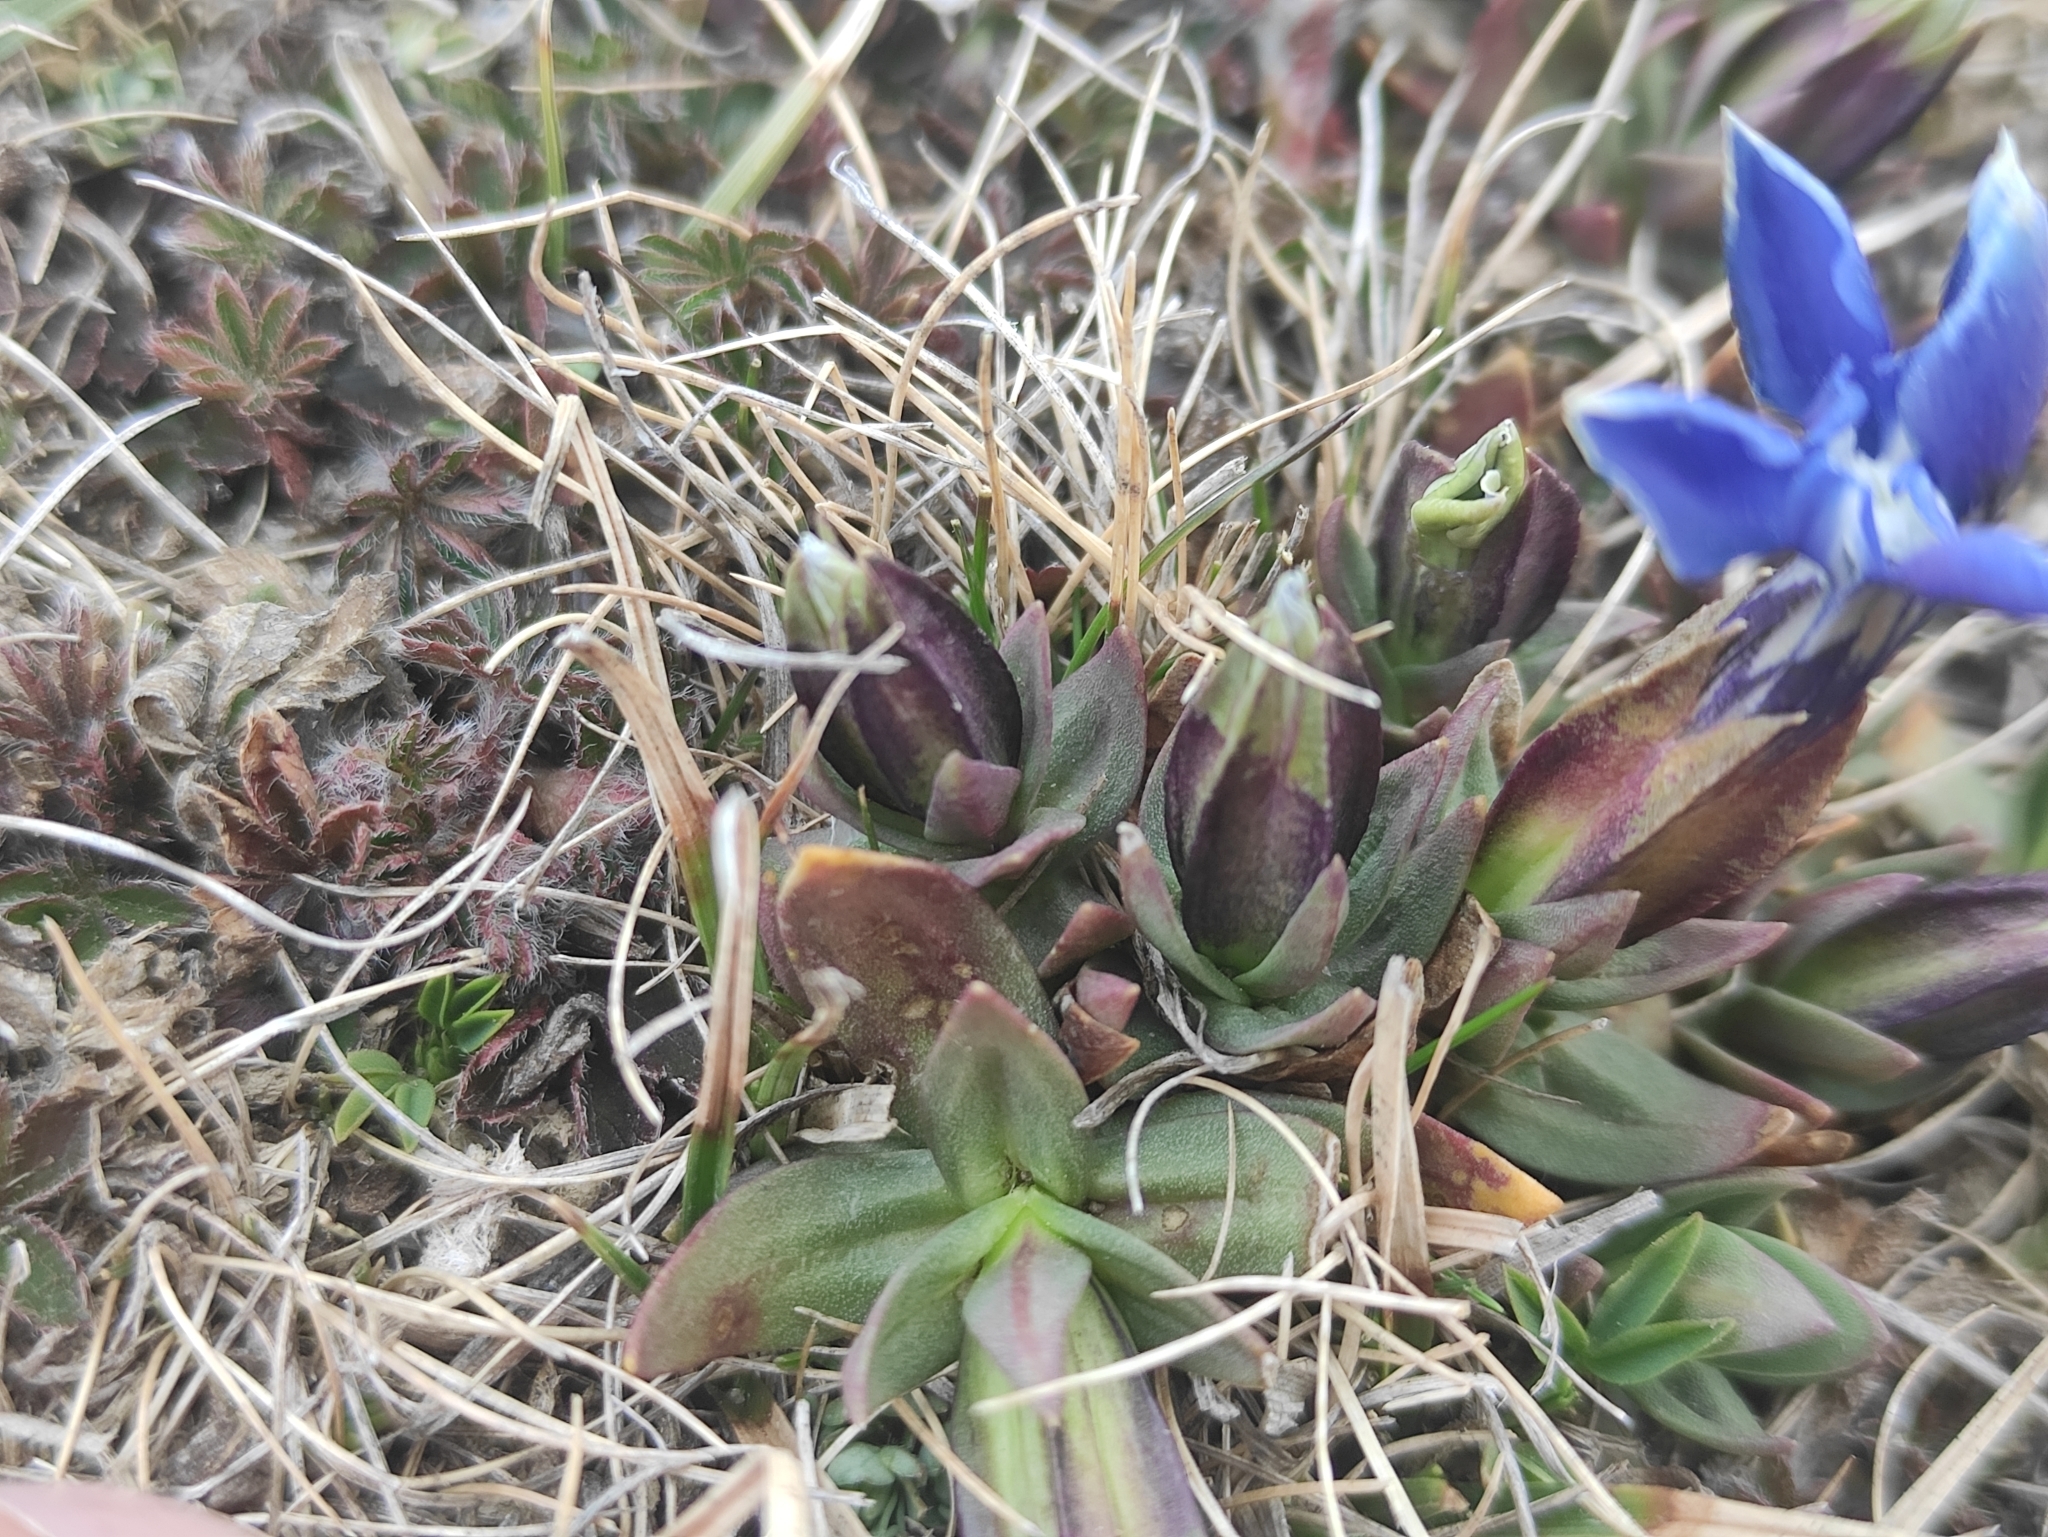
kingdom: Plantae
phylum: Tracheophyta
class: Magnoliopsida
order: Gentianales
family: Gentianaceae
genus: Gentiana
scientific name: Gentiana verna
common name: Spring gentian
